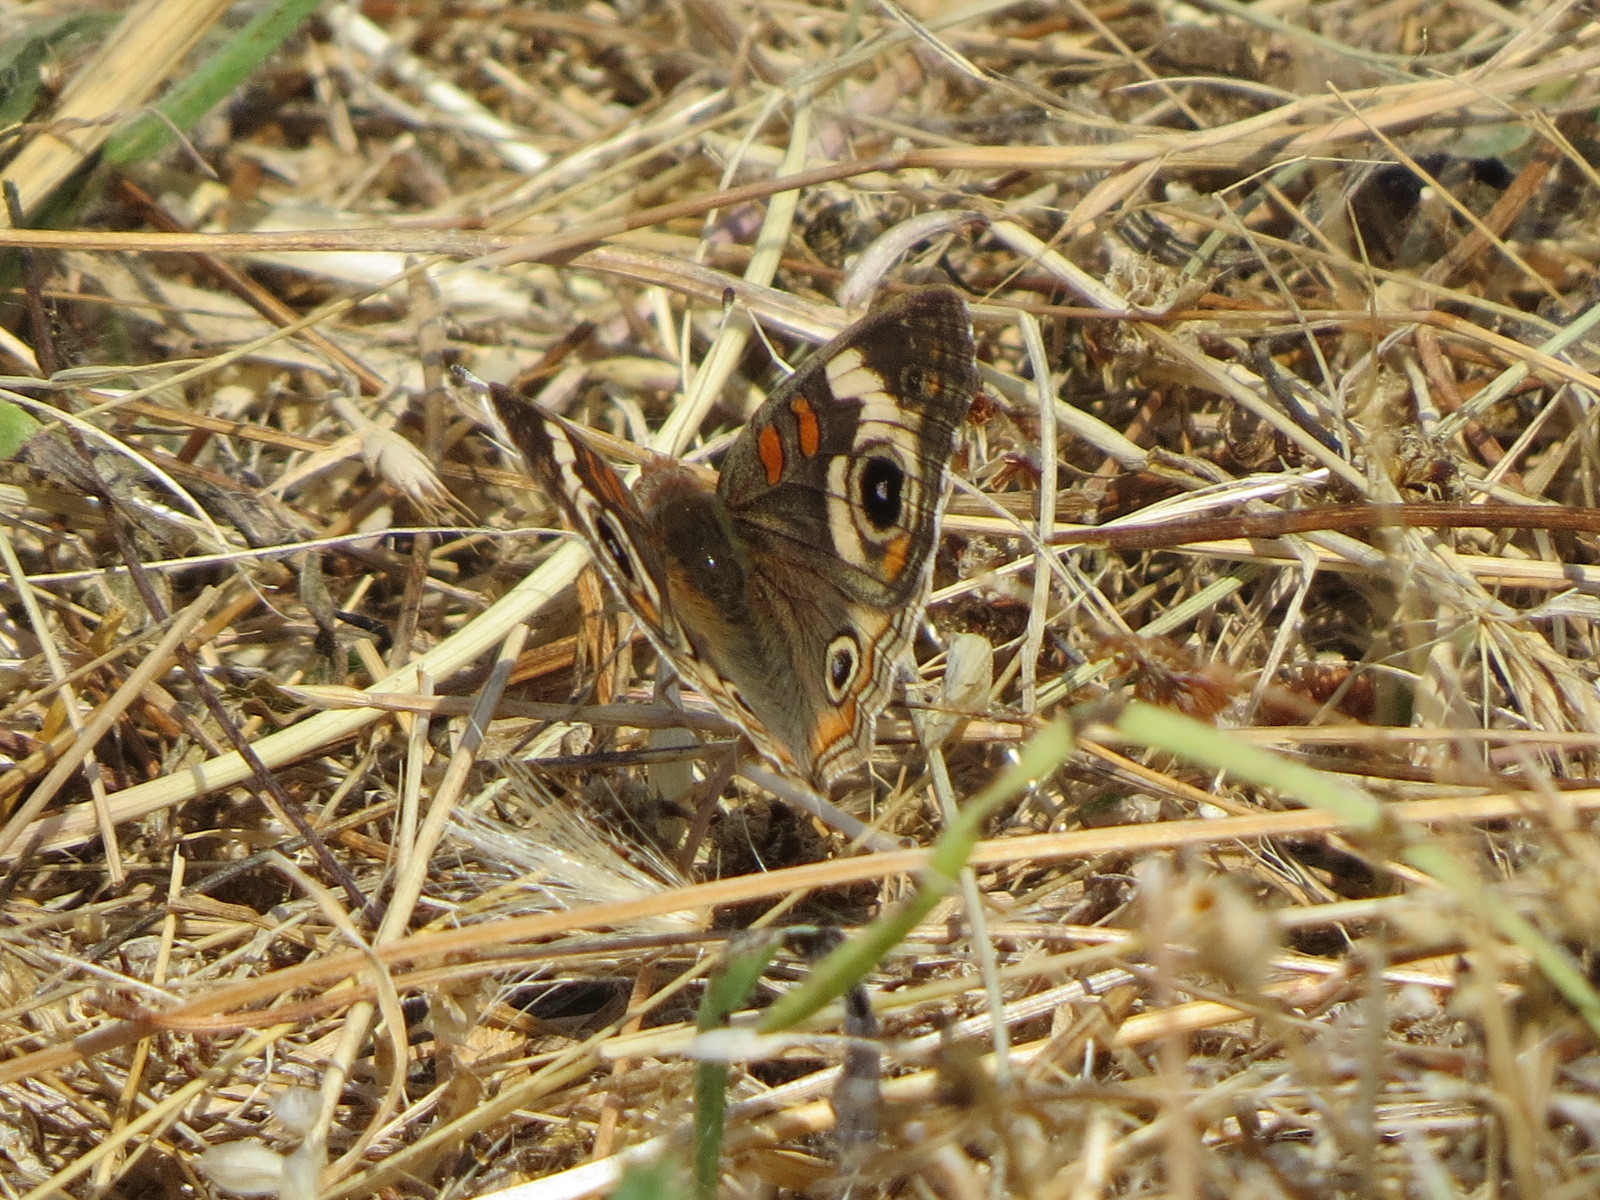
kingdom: Animalia
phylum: Arthropoda
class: Insecta
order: Lepidoptera
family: Nymphalidae
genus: Junonia
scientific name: Junonia grisea
